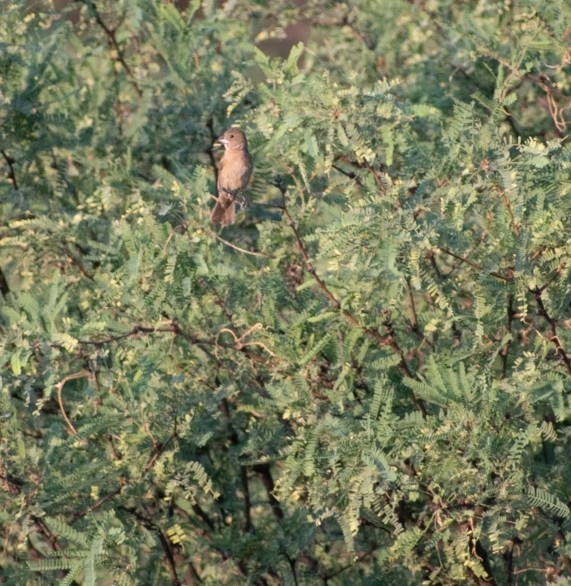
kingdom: Animalia
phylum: Chordata
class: Aves
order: Passeriformes
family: Cardinalidae
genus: Passerina
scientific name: Passerina caerulea
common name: Blue grosbeak
